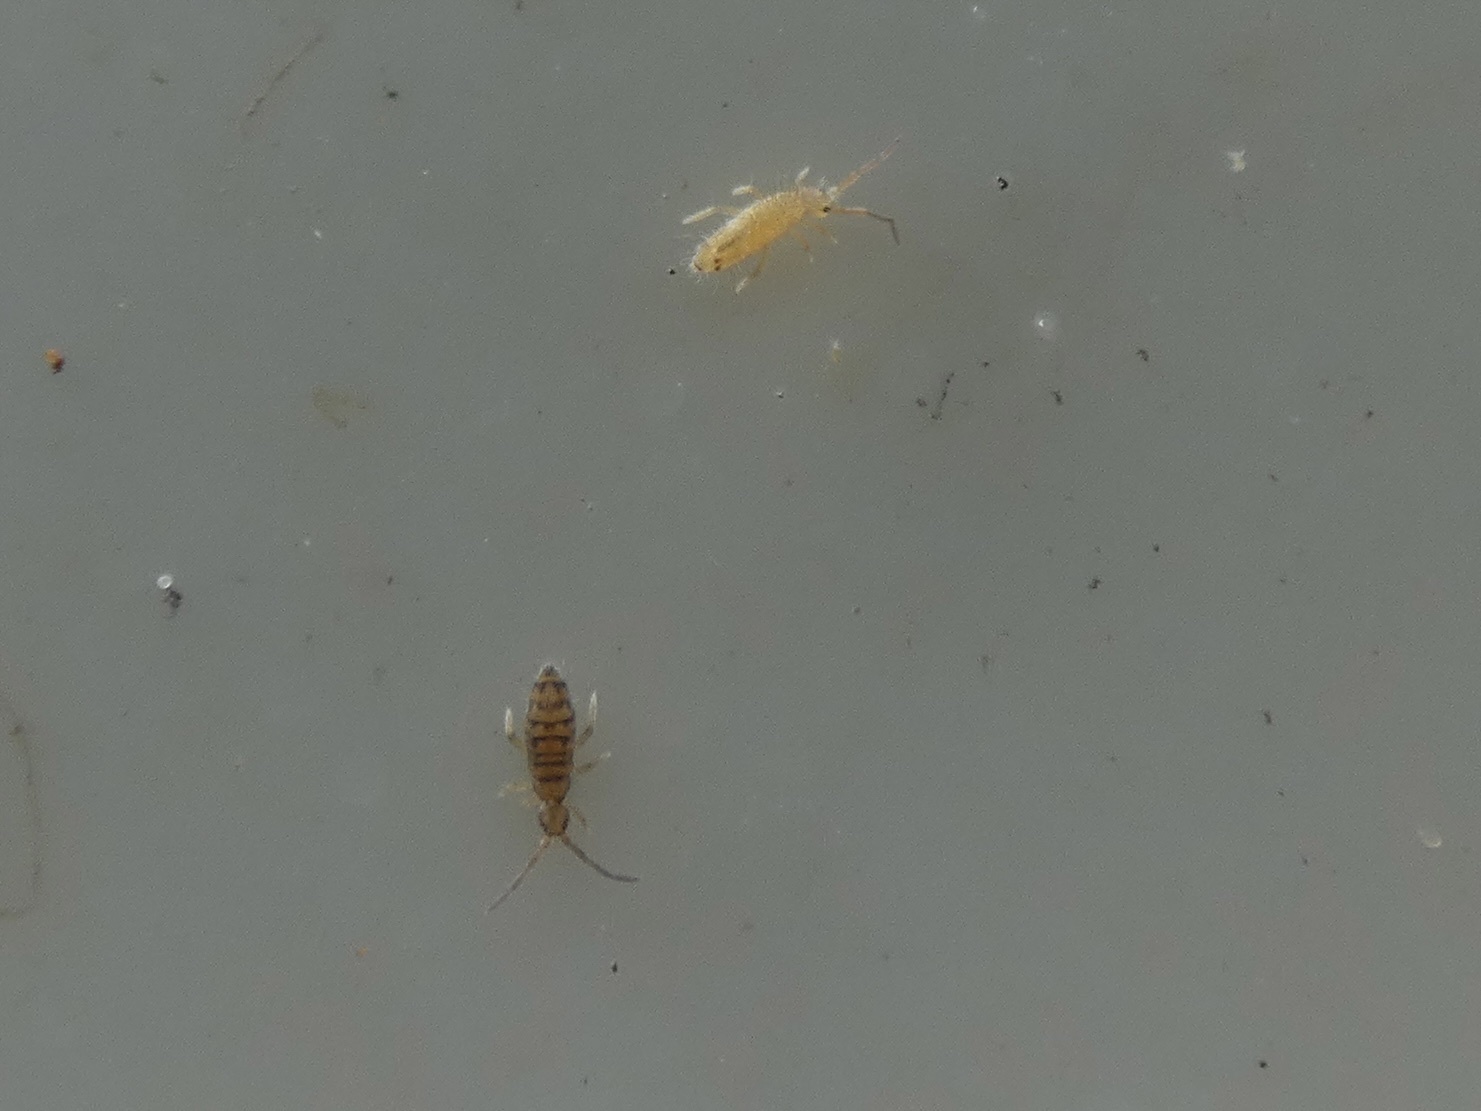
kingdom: Animalia
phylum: Arthropoda
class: Collembola
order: Entomobryomorpha
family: Entomobryidae
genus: Entomobrya
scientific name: Entomobrya nicoleti
